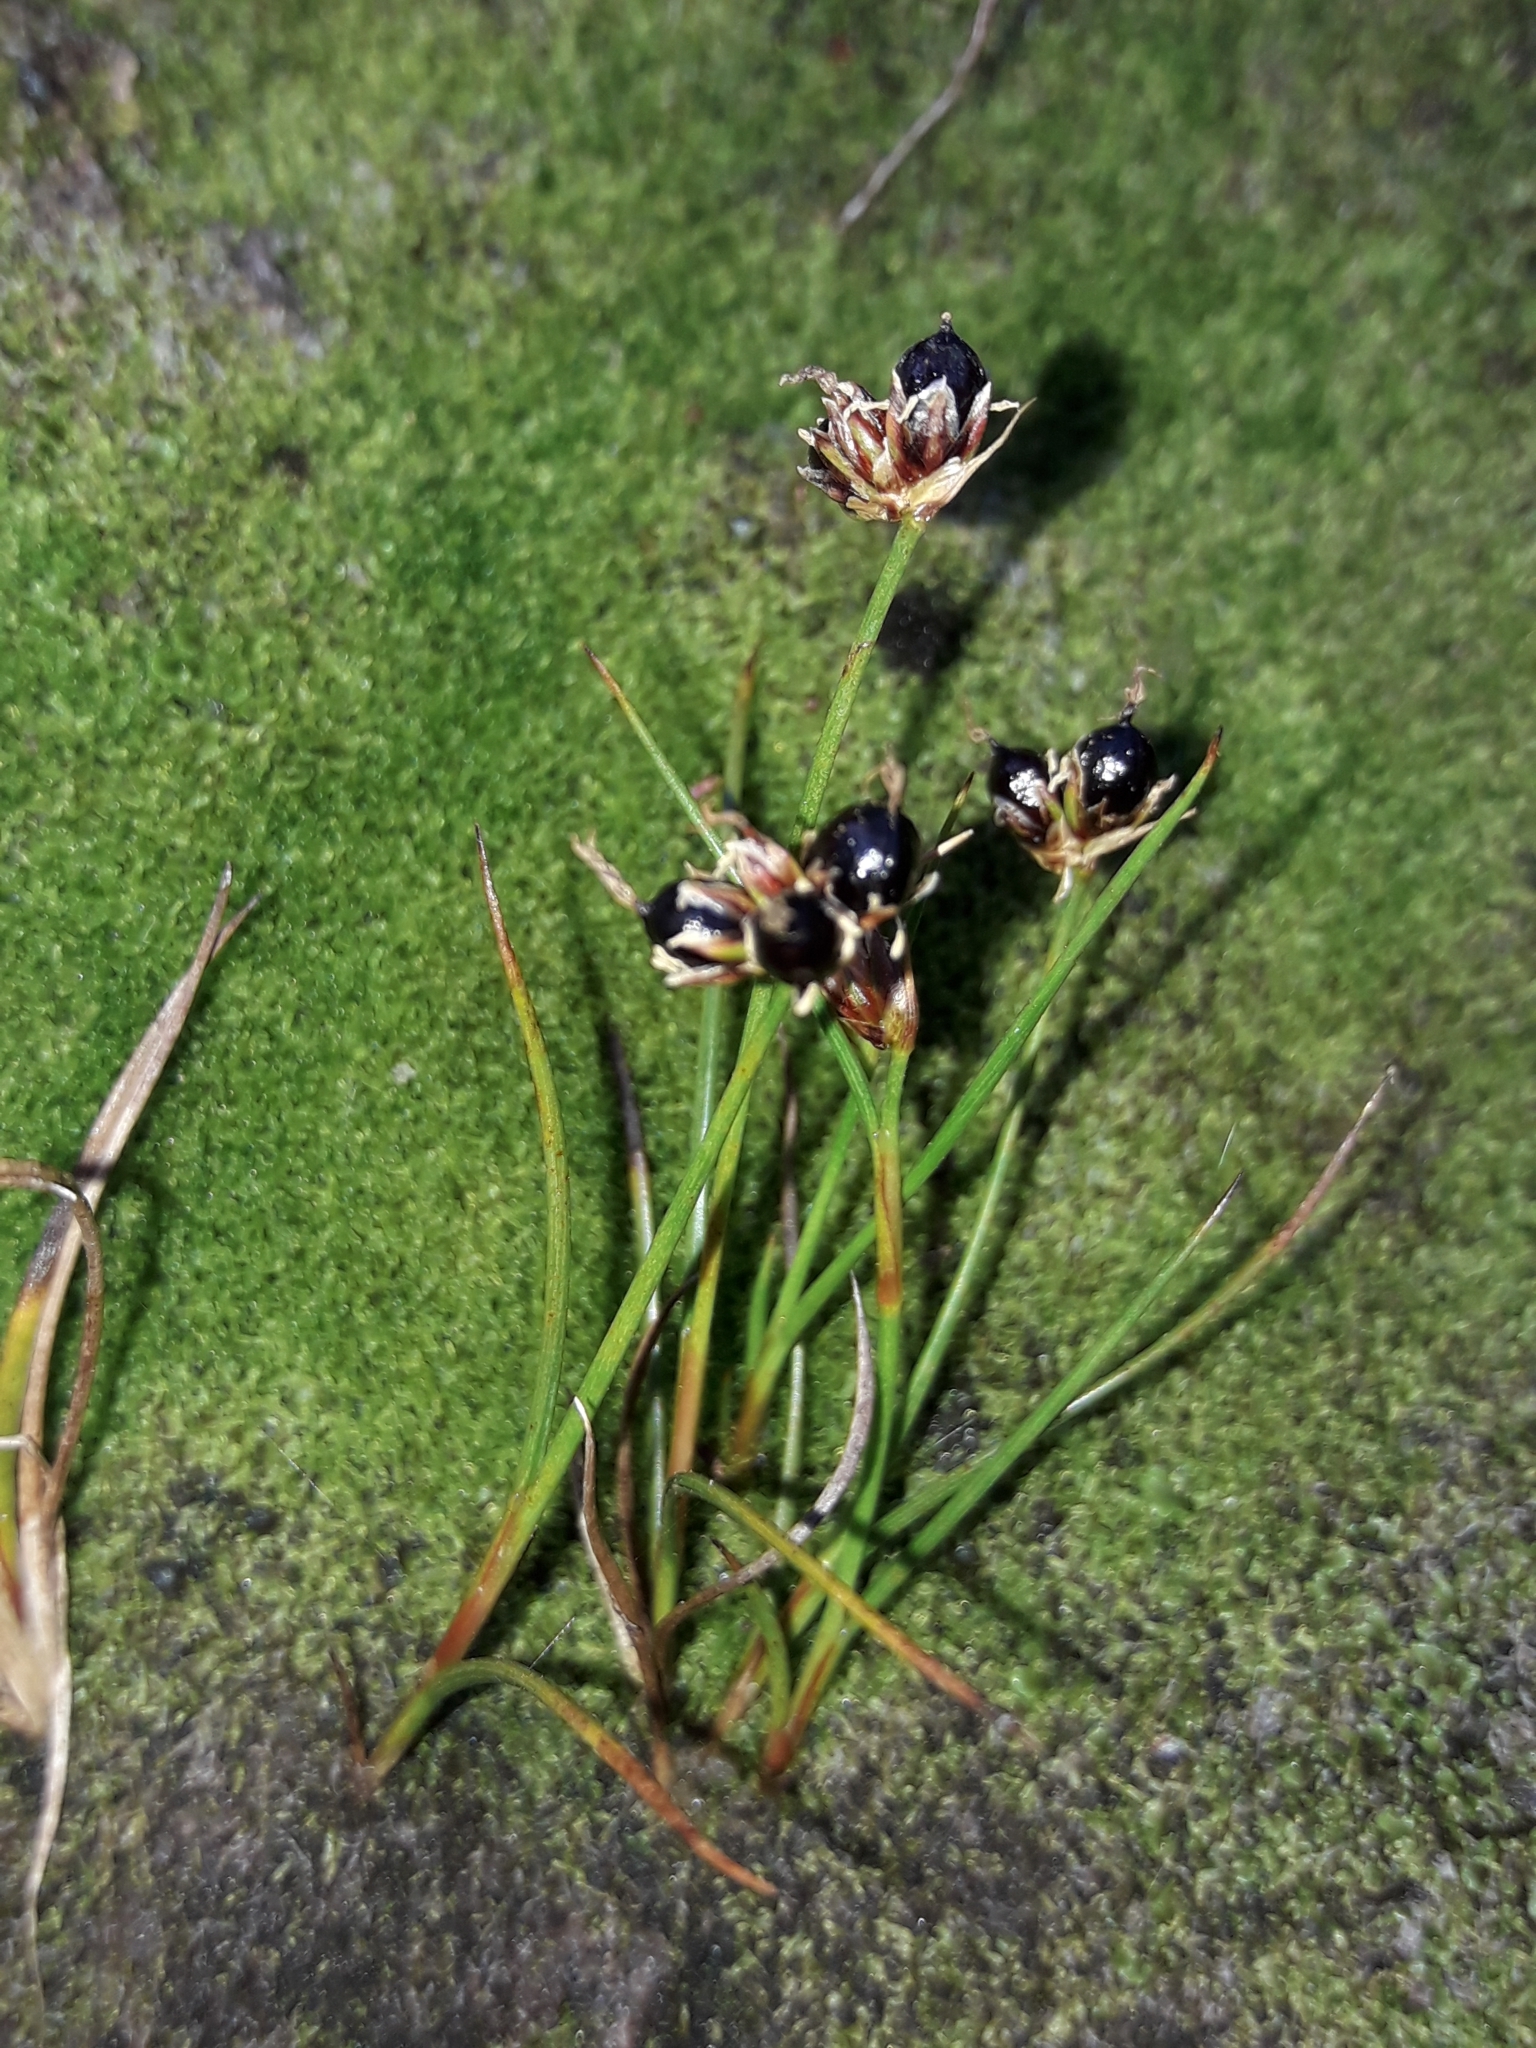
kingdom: Plantae
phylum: Tracheophyta
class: Liliopsida
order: Poales
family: Juncaceae
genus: Juncus
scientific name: Juncus novae-zelandiae
